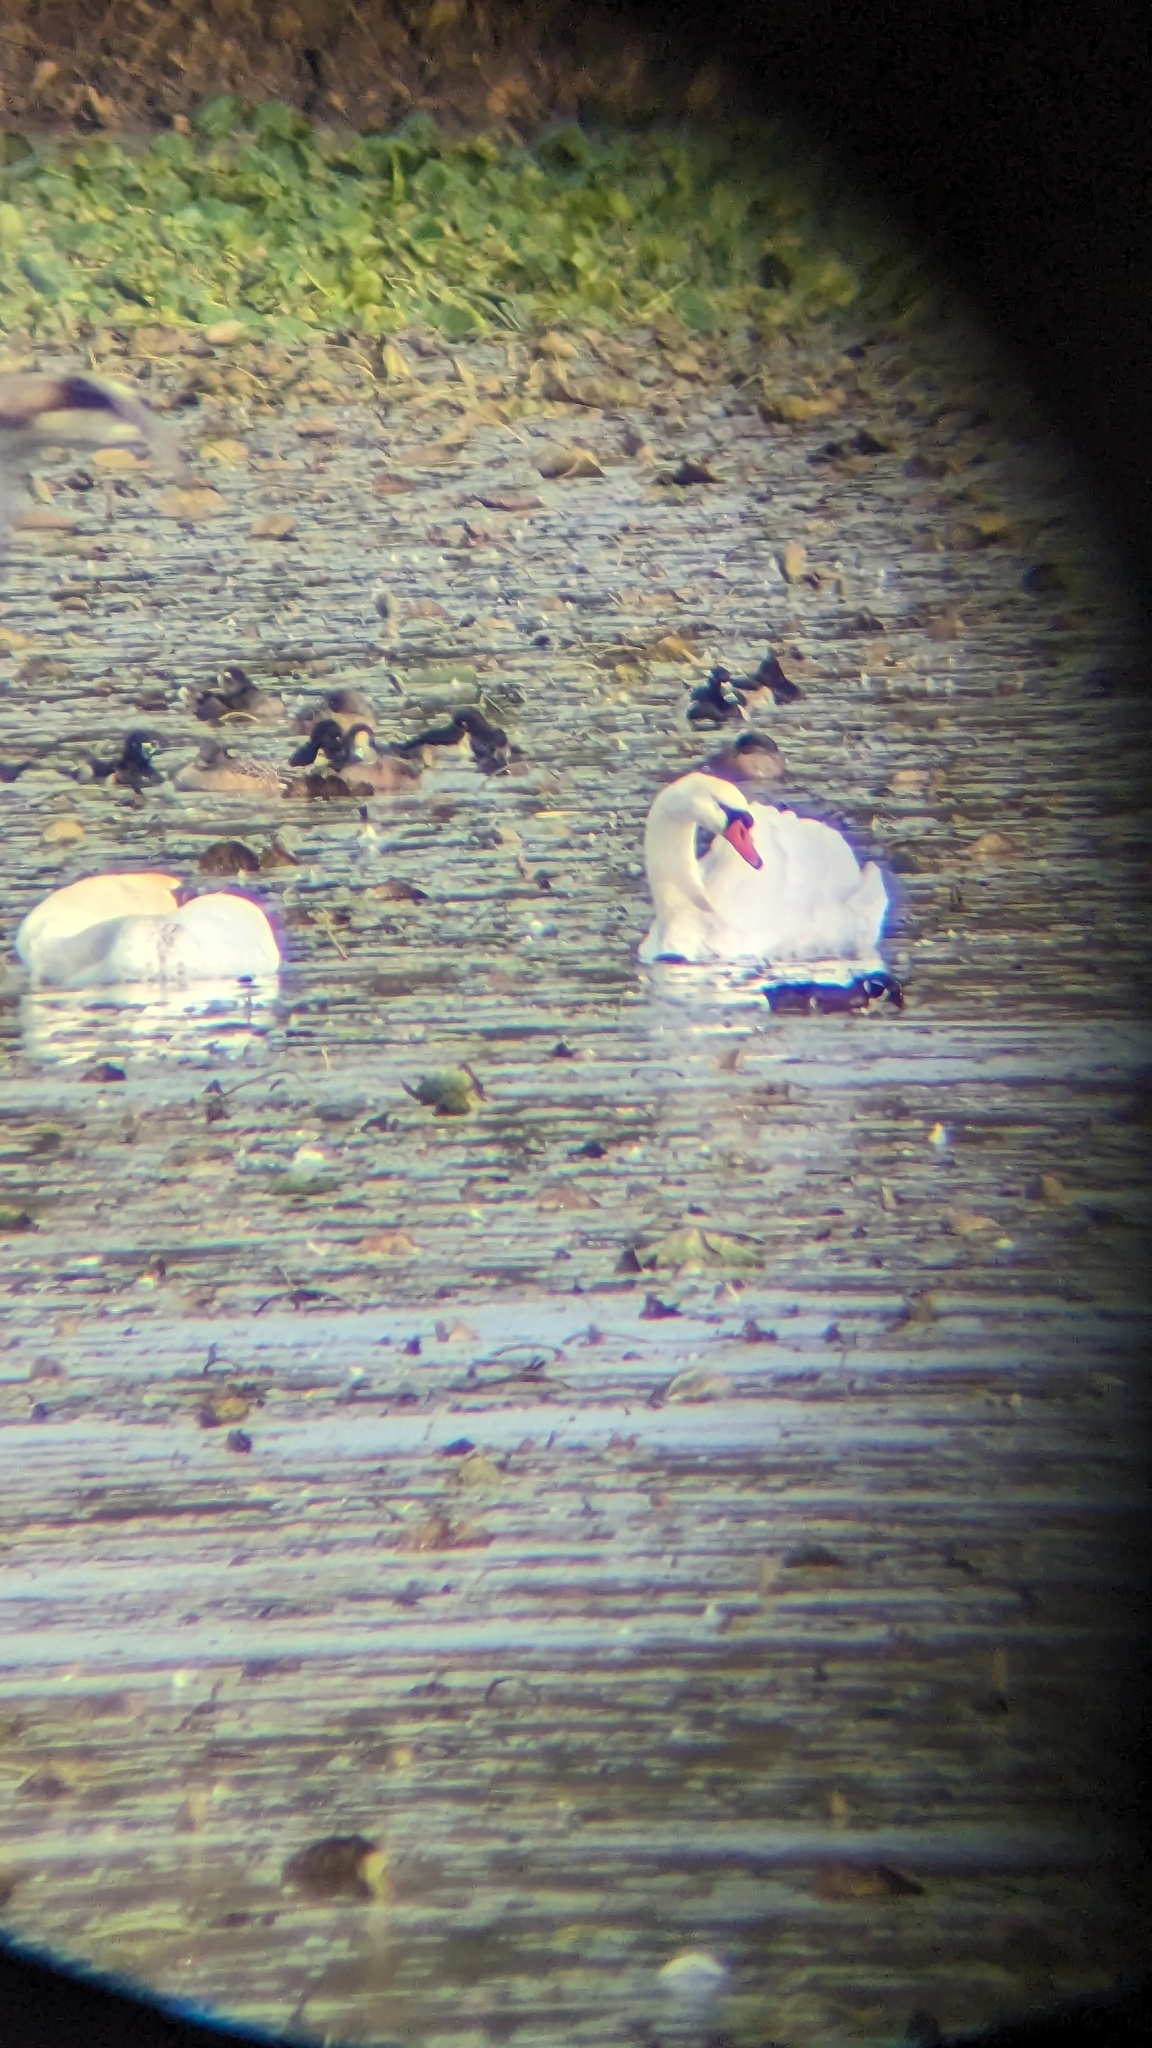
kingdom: Animalia
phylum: Chordata
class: Aves
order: Anseriformes
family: Anatidae
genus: Aix
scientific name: Aix sponsa
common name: Wood duck
